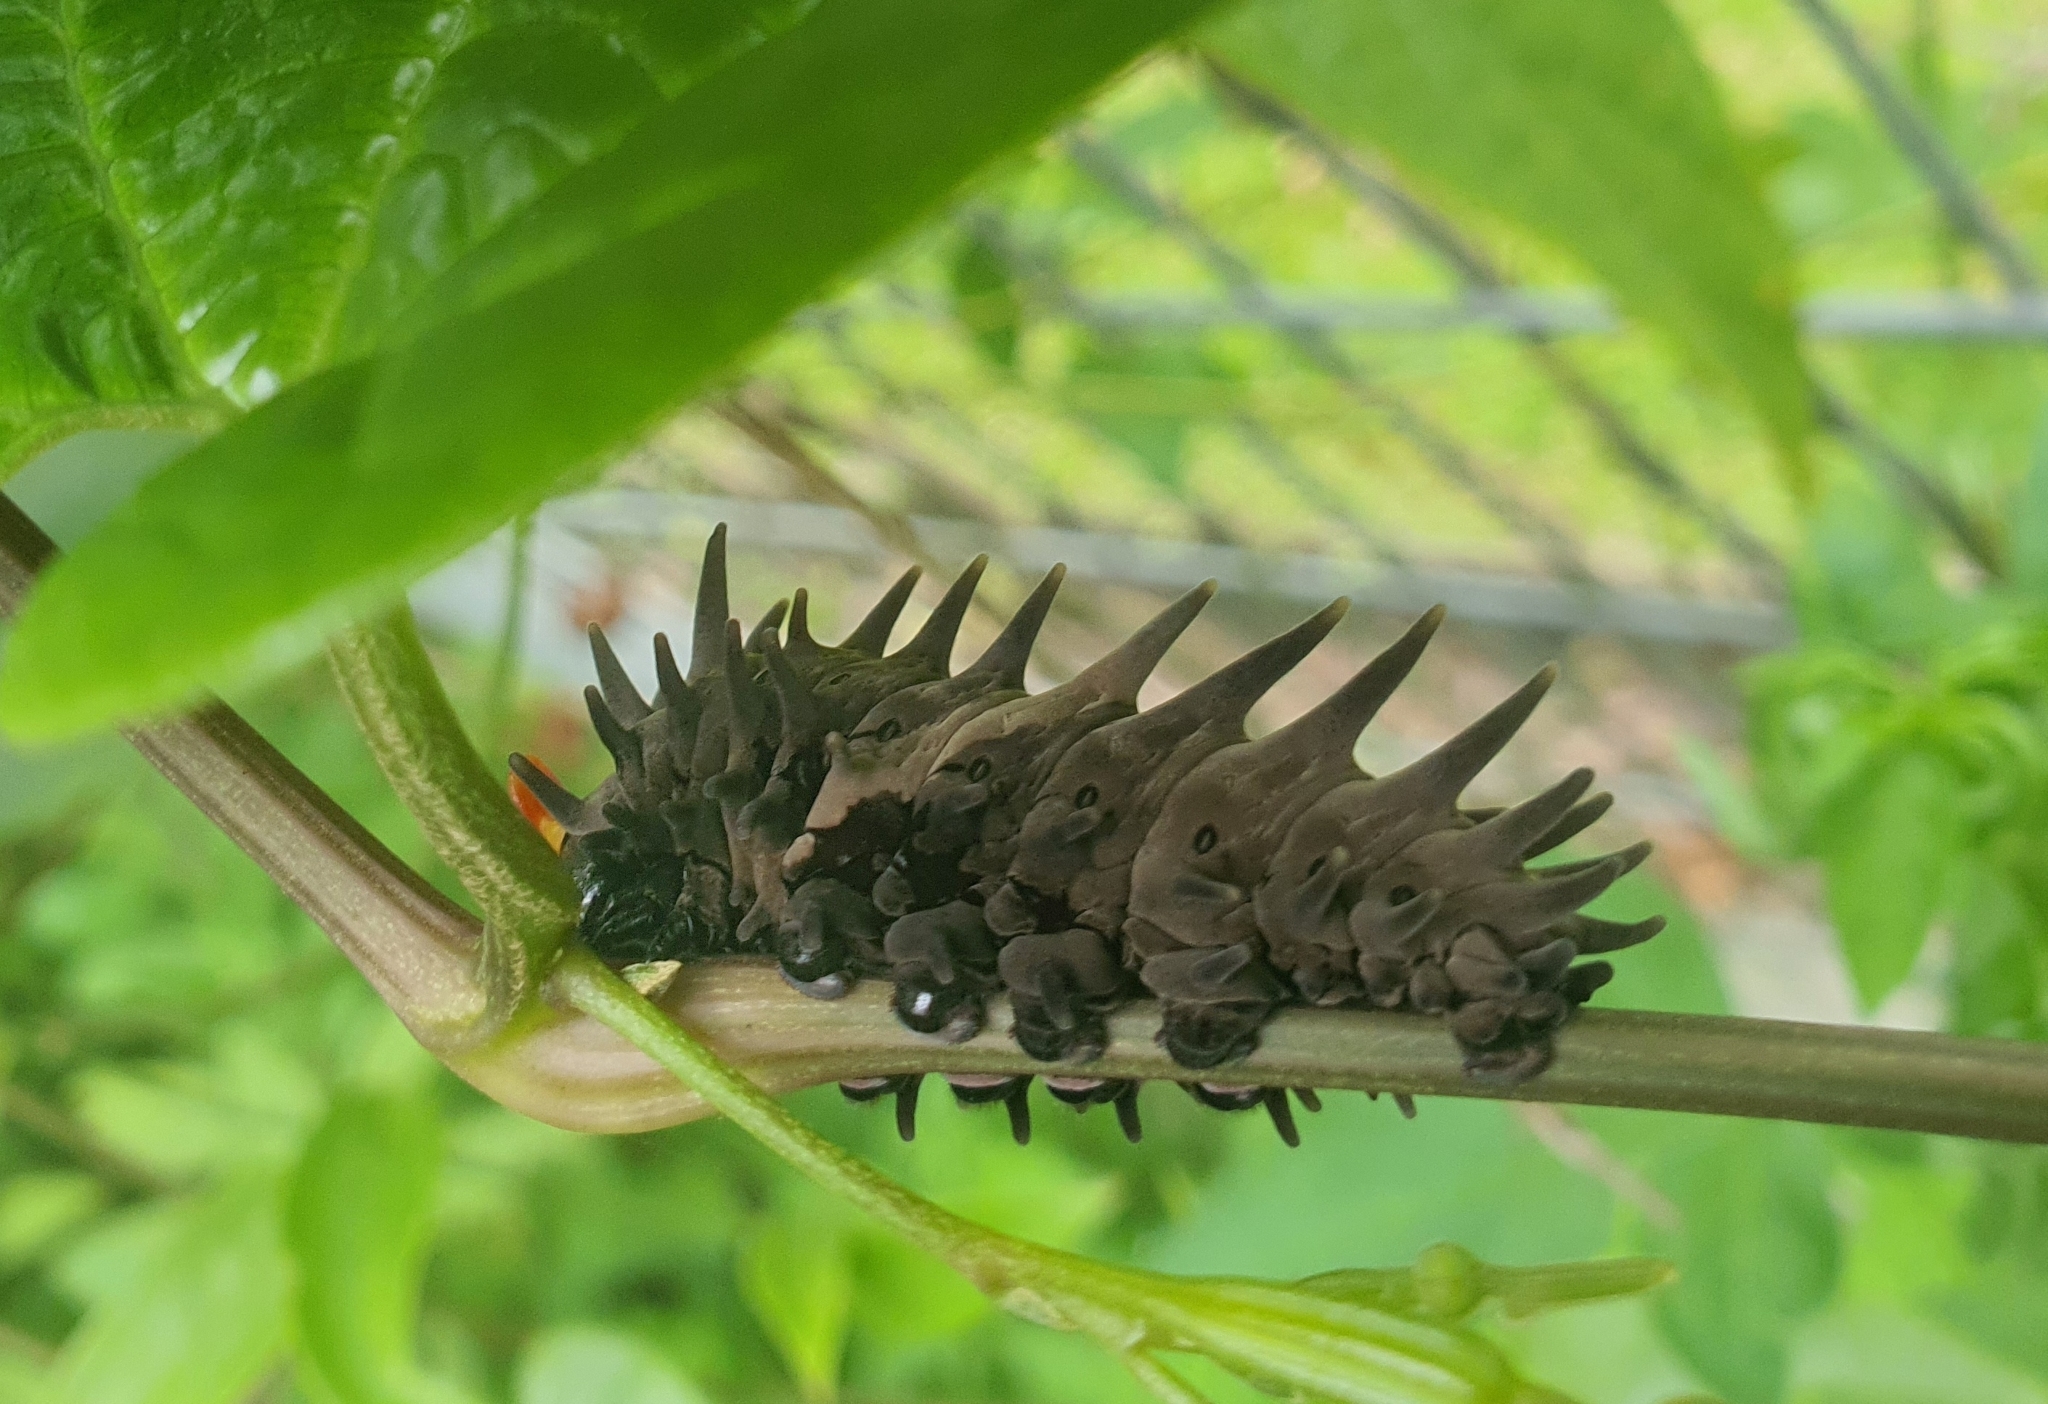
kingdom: Animalia
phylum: Arthropoda
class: Insecta
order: Lepidoptera
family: Papilionidae
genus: Troides
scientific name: Troides helena
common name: Common birdwing
